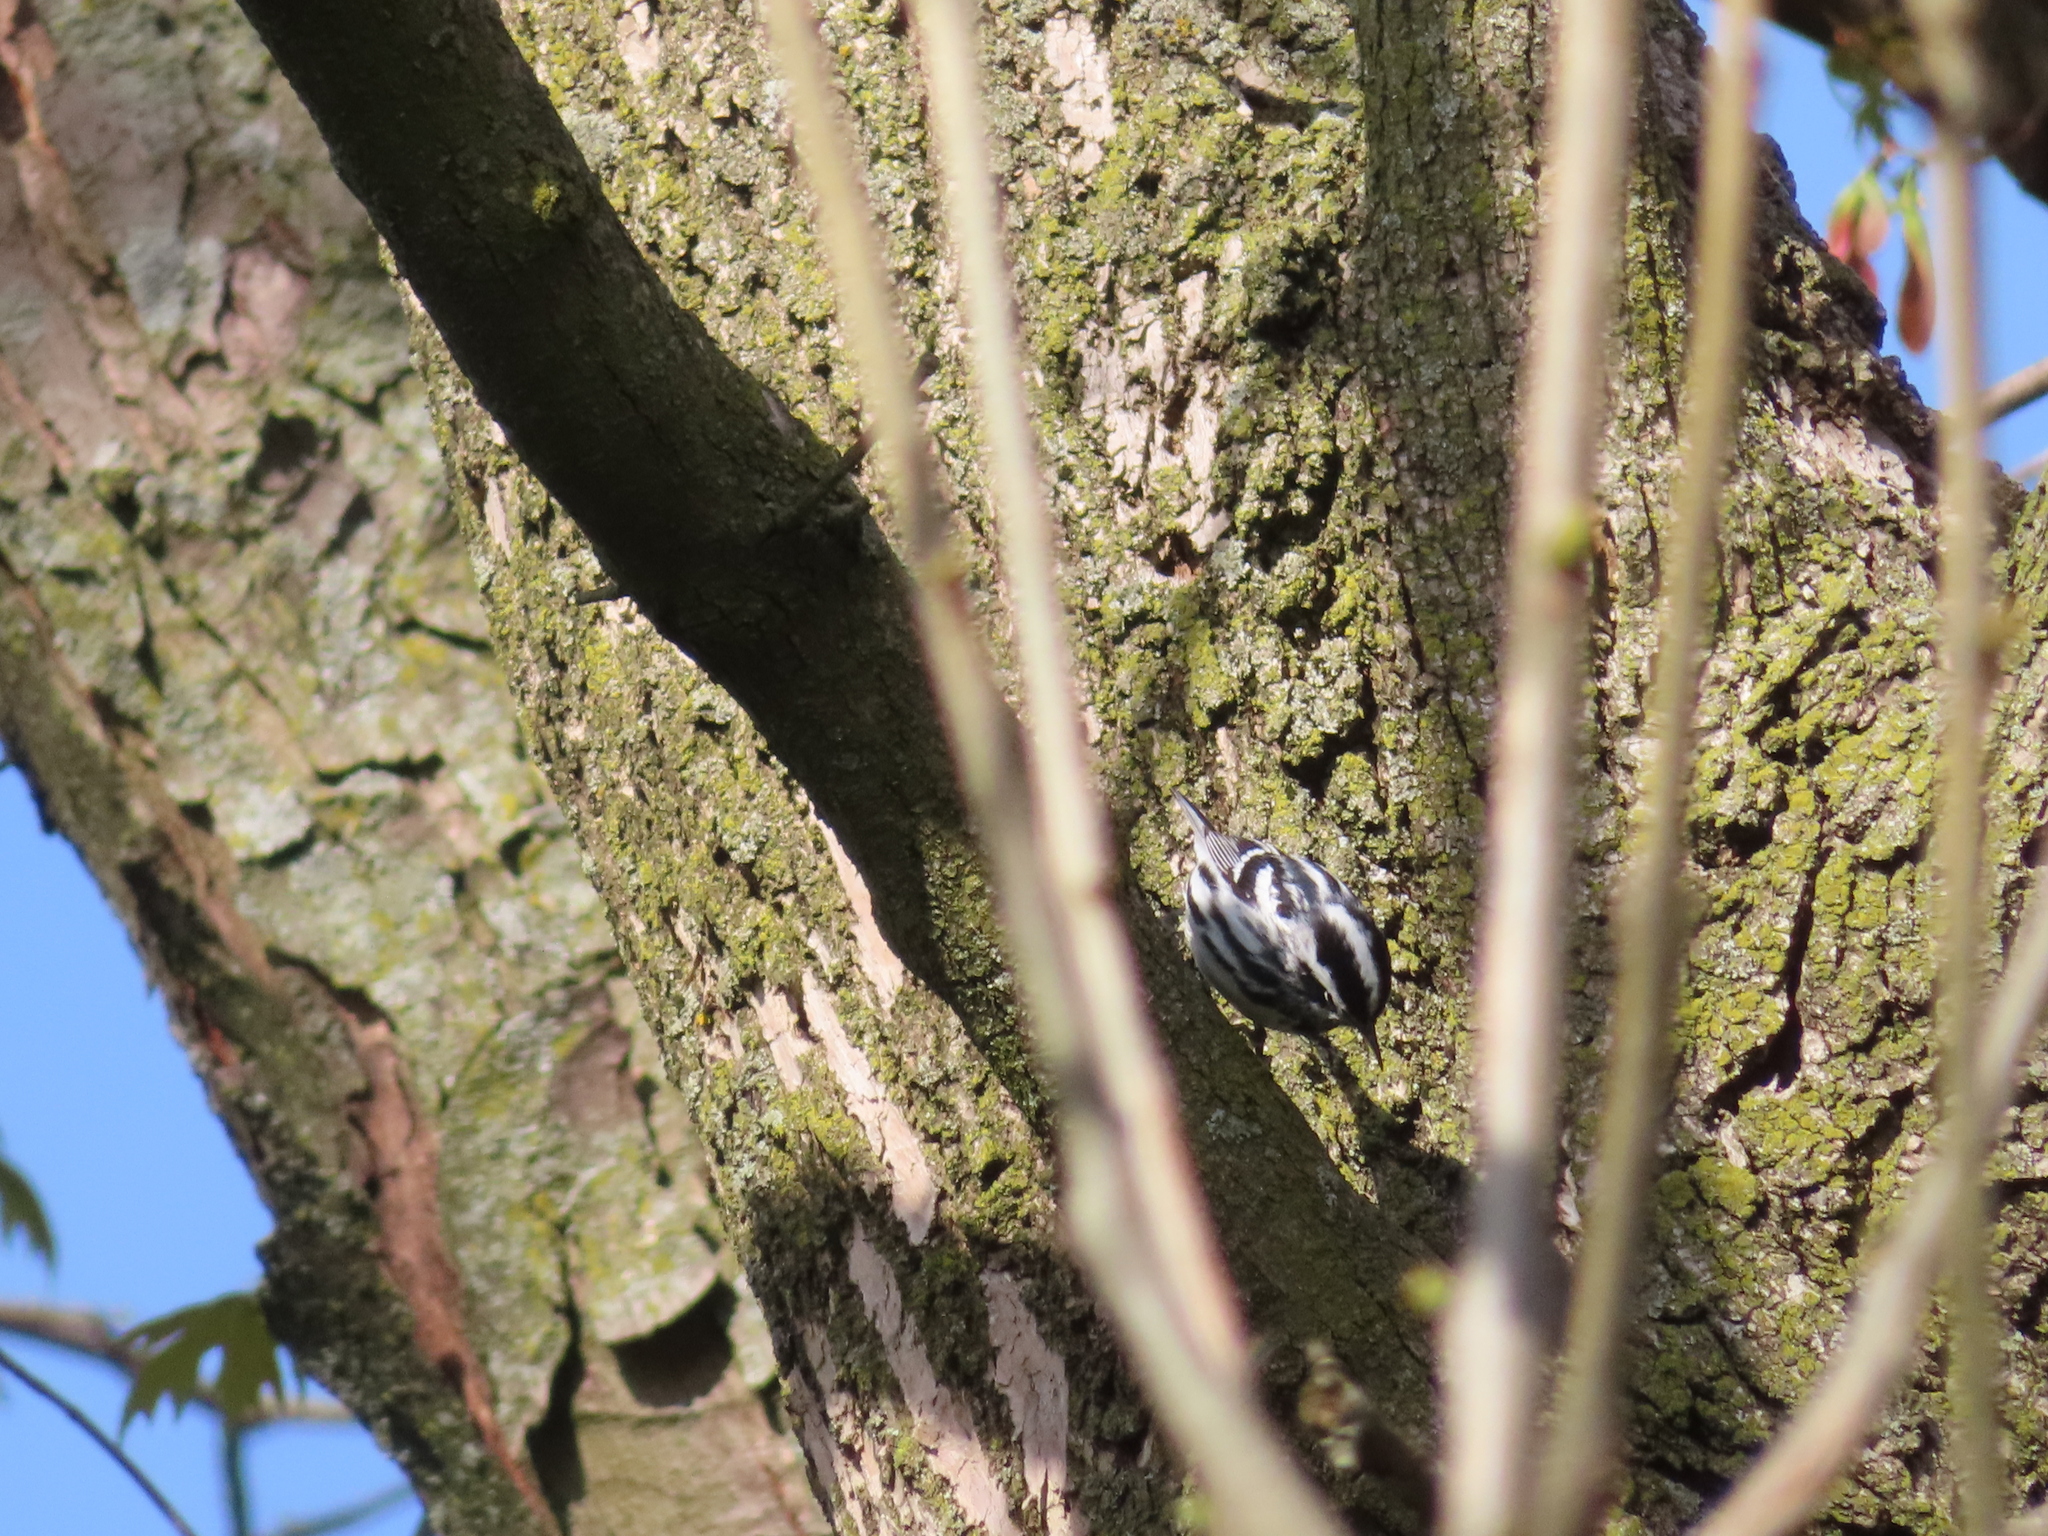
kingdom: Animalia
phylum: Chordata
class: Aves
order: Passeriformes
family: Parulidae
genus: Mniotilta
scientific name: Mniotilta varia
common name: Black-and-white warbler
